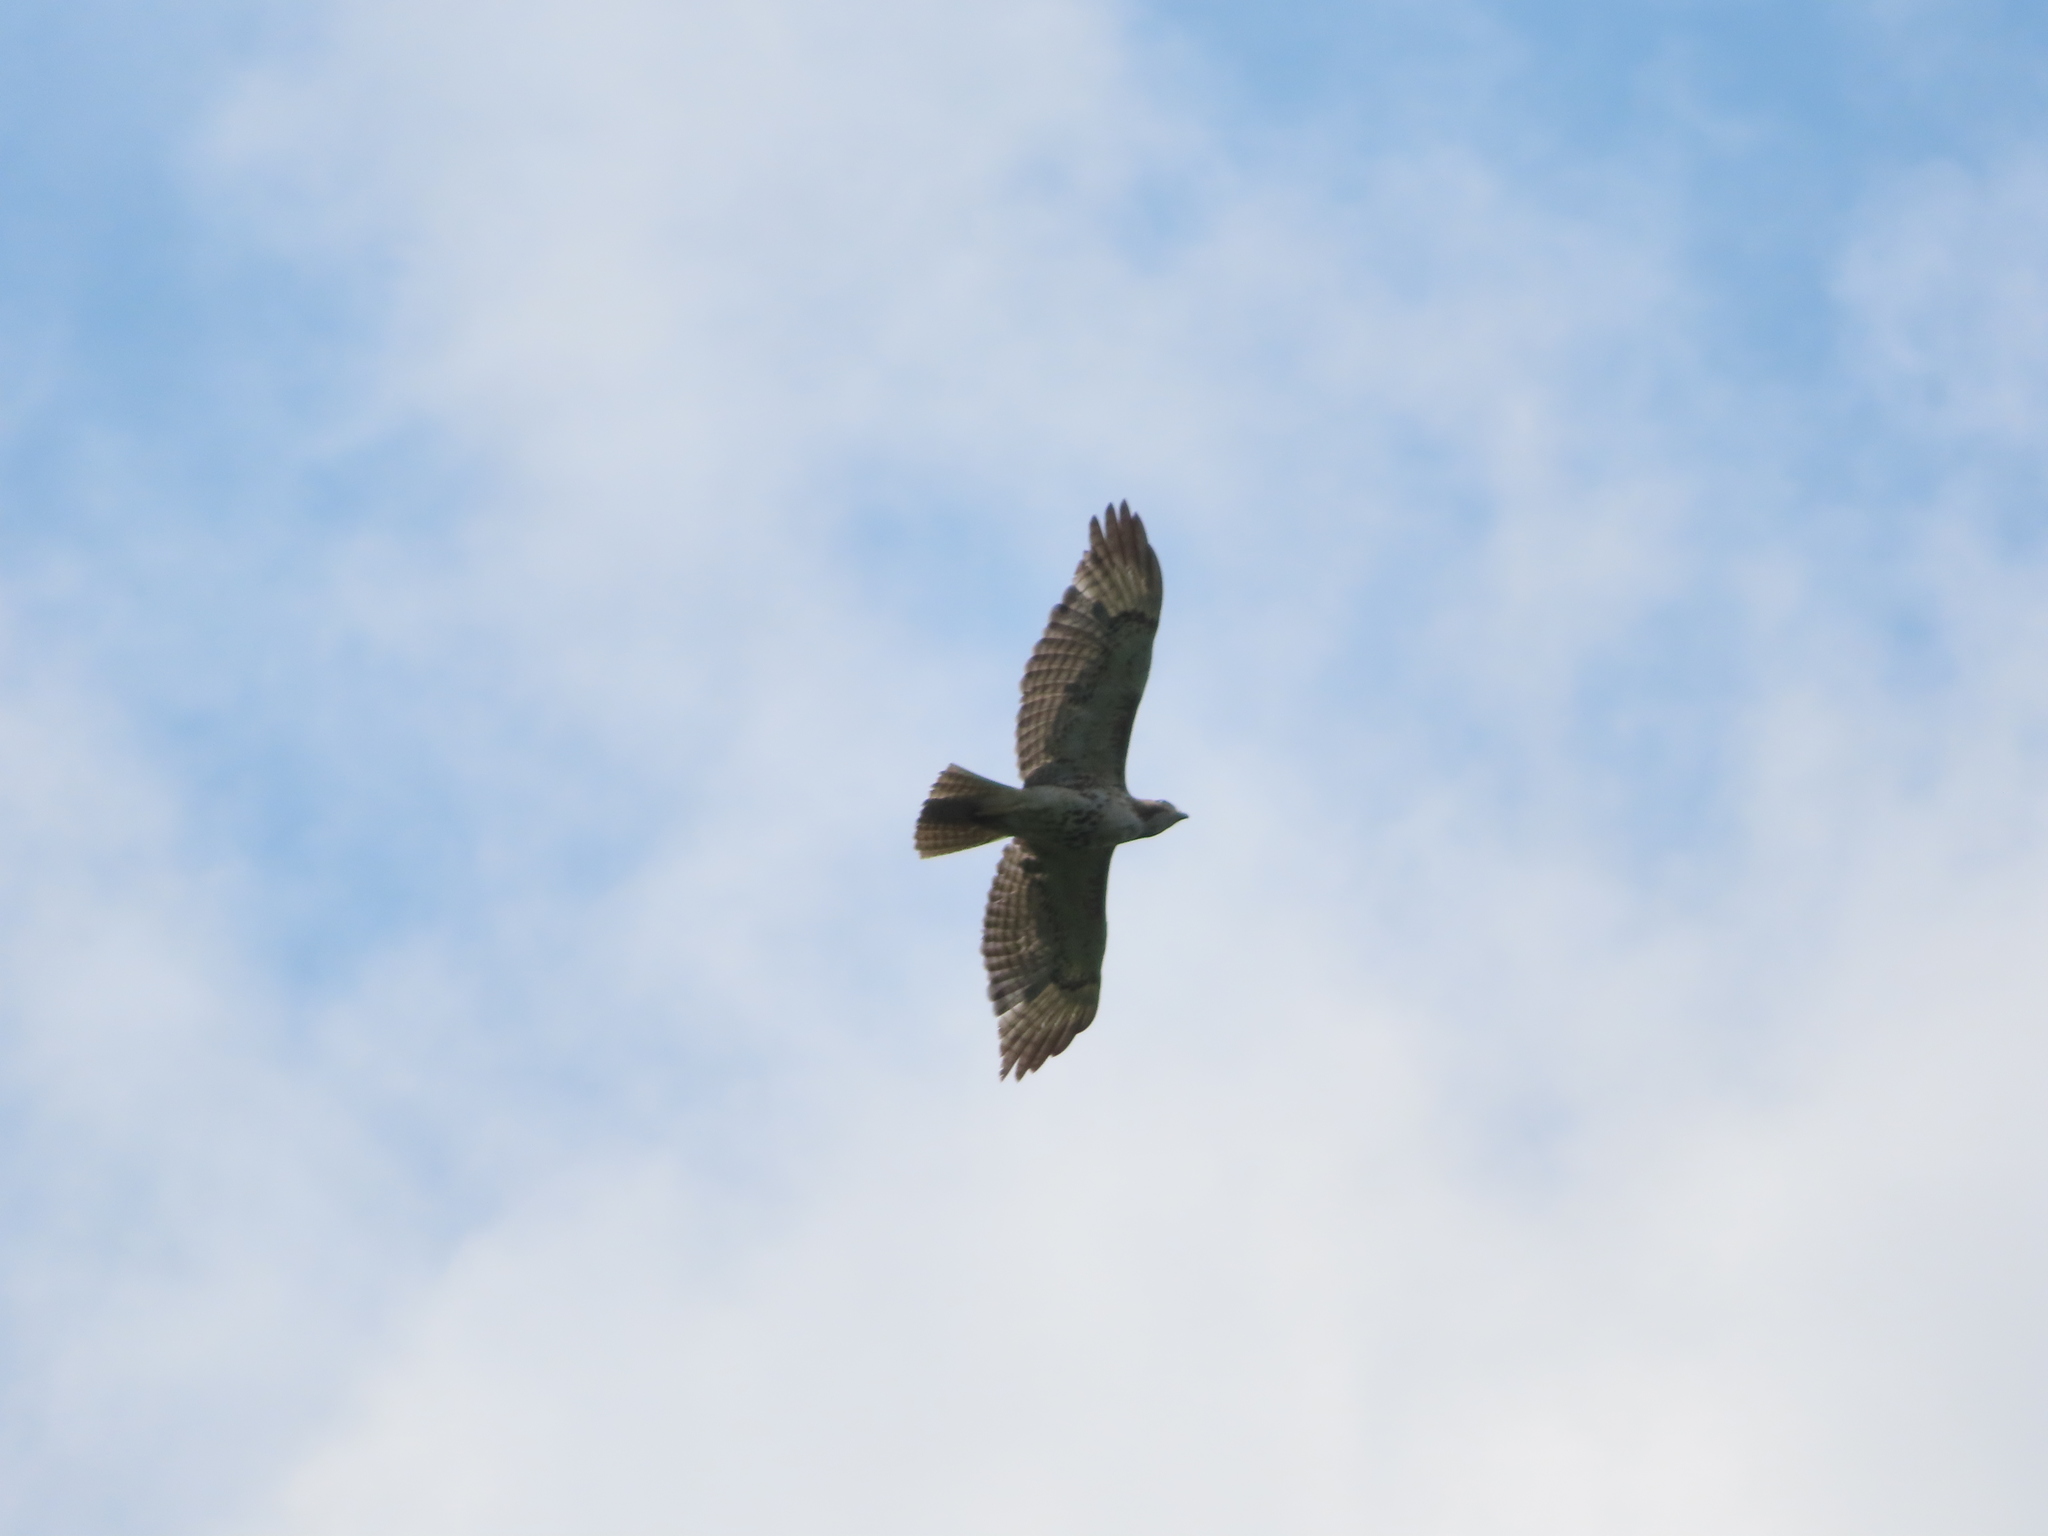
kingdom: Animalia
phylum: Chordata
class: Aves
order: Accipitriformes
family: Accipitridae
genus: Buteo
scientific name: Buteo jamaicensis
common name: Red-tailed hawk
